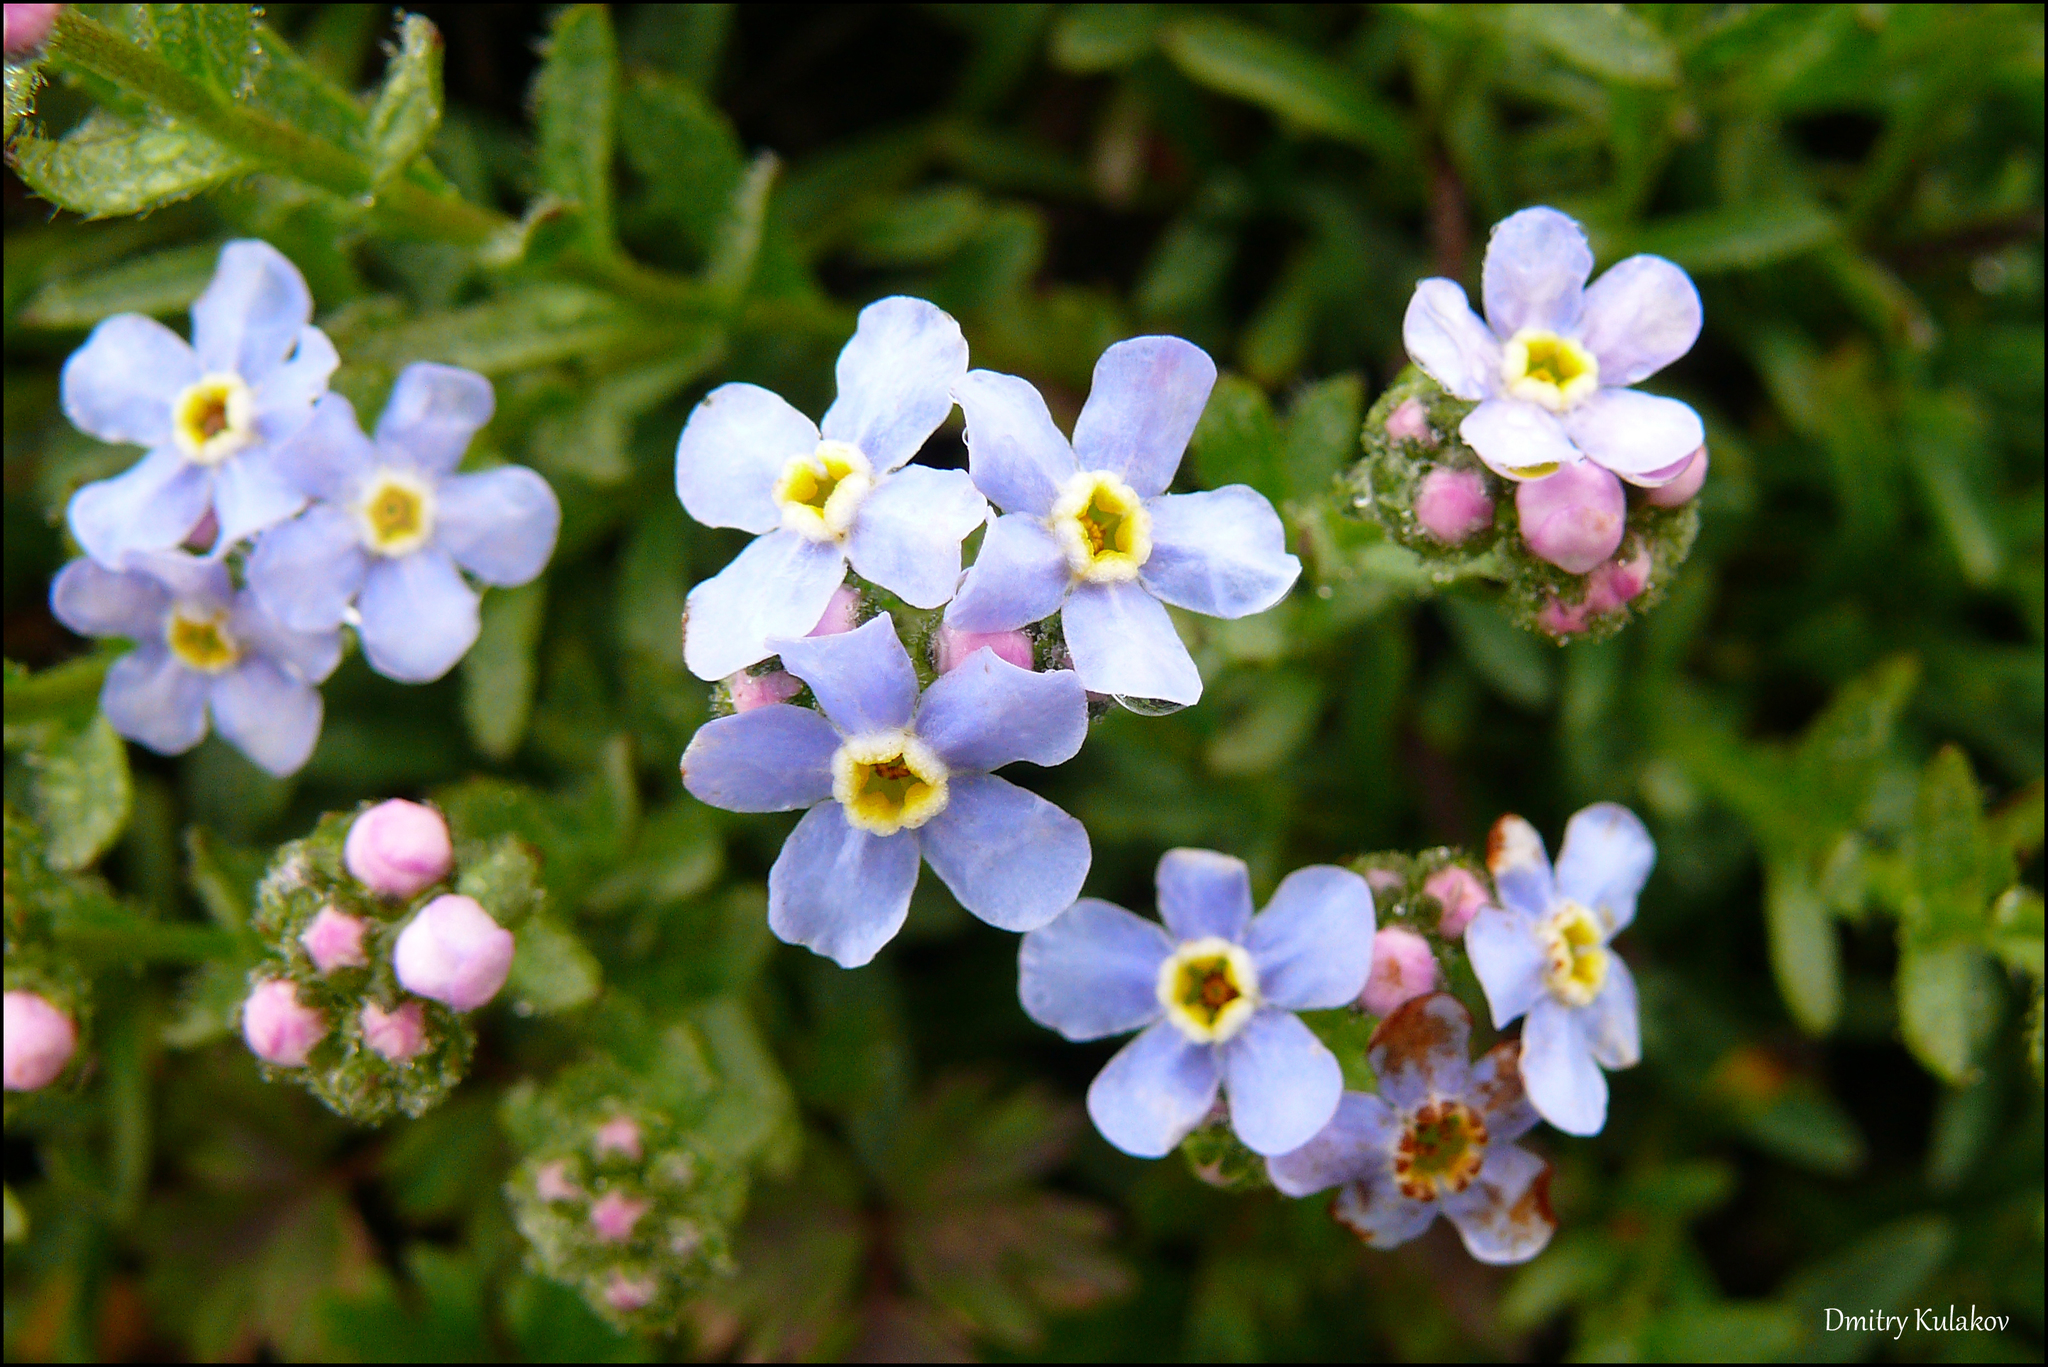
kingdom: Plantae
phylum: Tracheophyta
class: Magnoliopsida
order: Boraginales
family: Boraginaceae
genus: Eritrichium
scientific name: Eritrichium nipponicum
